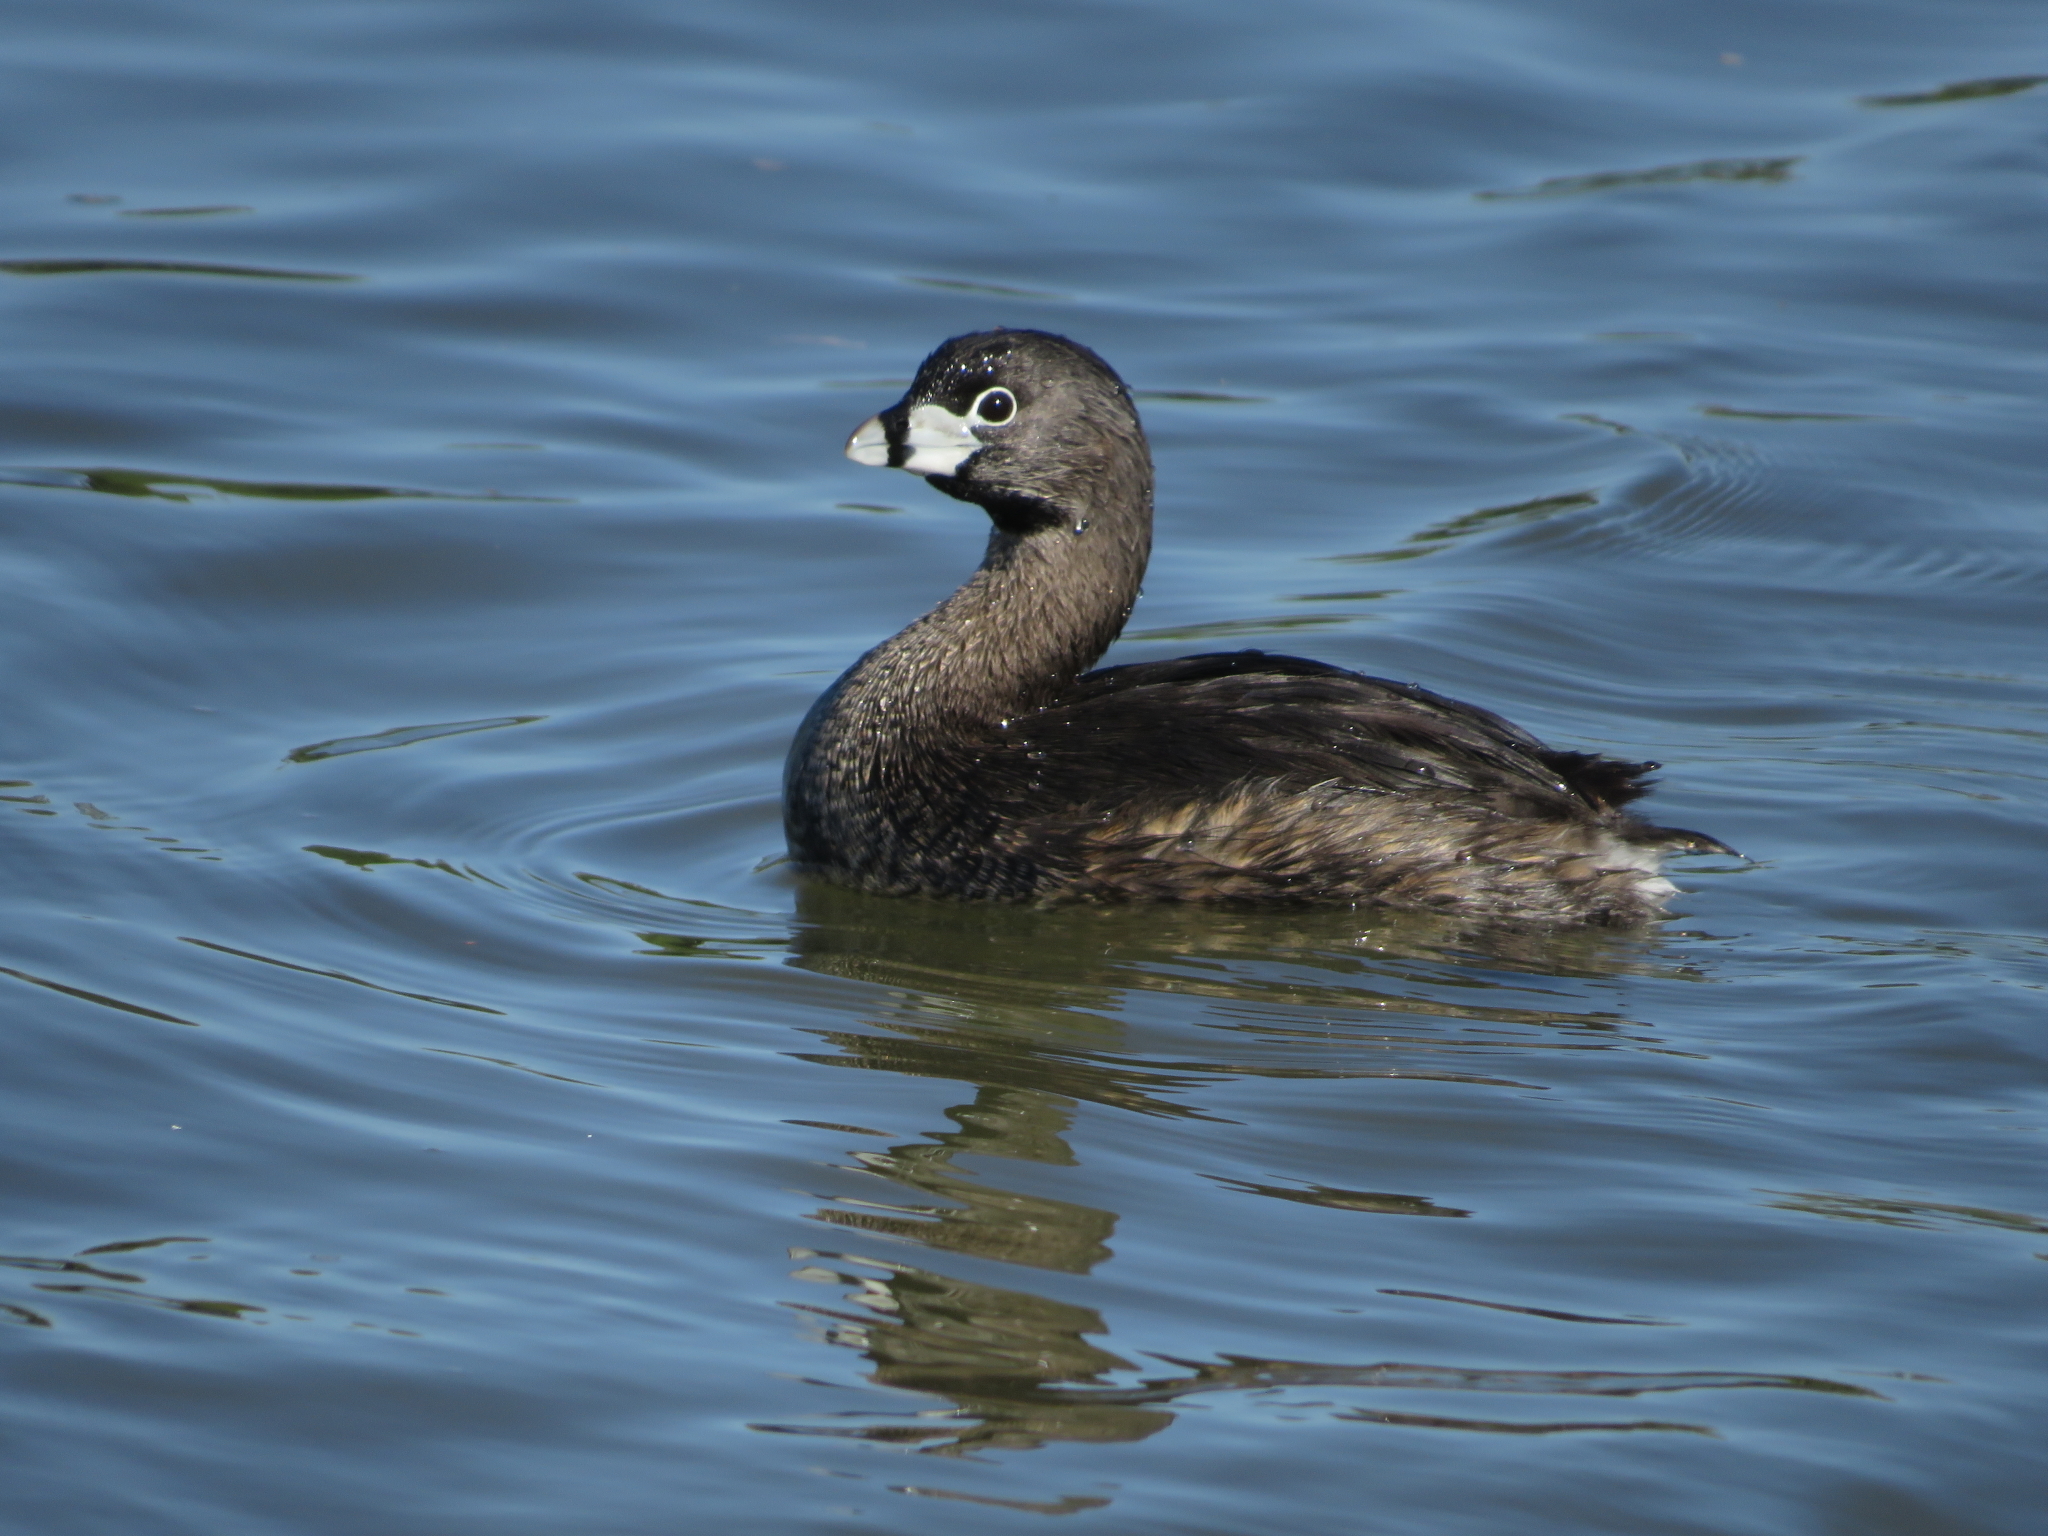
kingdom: Animalia
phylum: Chordata
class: Aves
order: Podicipediformes
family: Podicipedidae
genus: Podilymbus
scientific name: Podilymbus podiceps
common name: Pied-billed grebe
